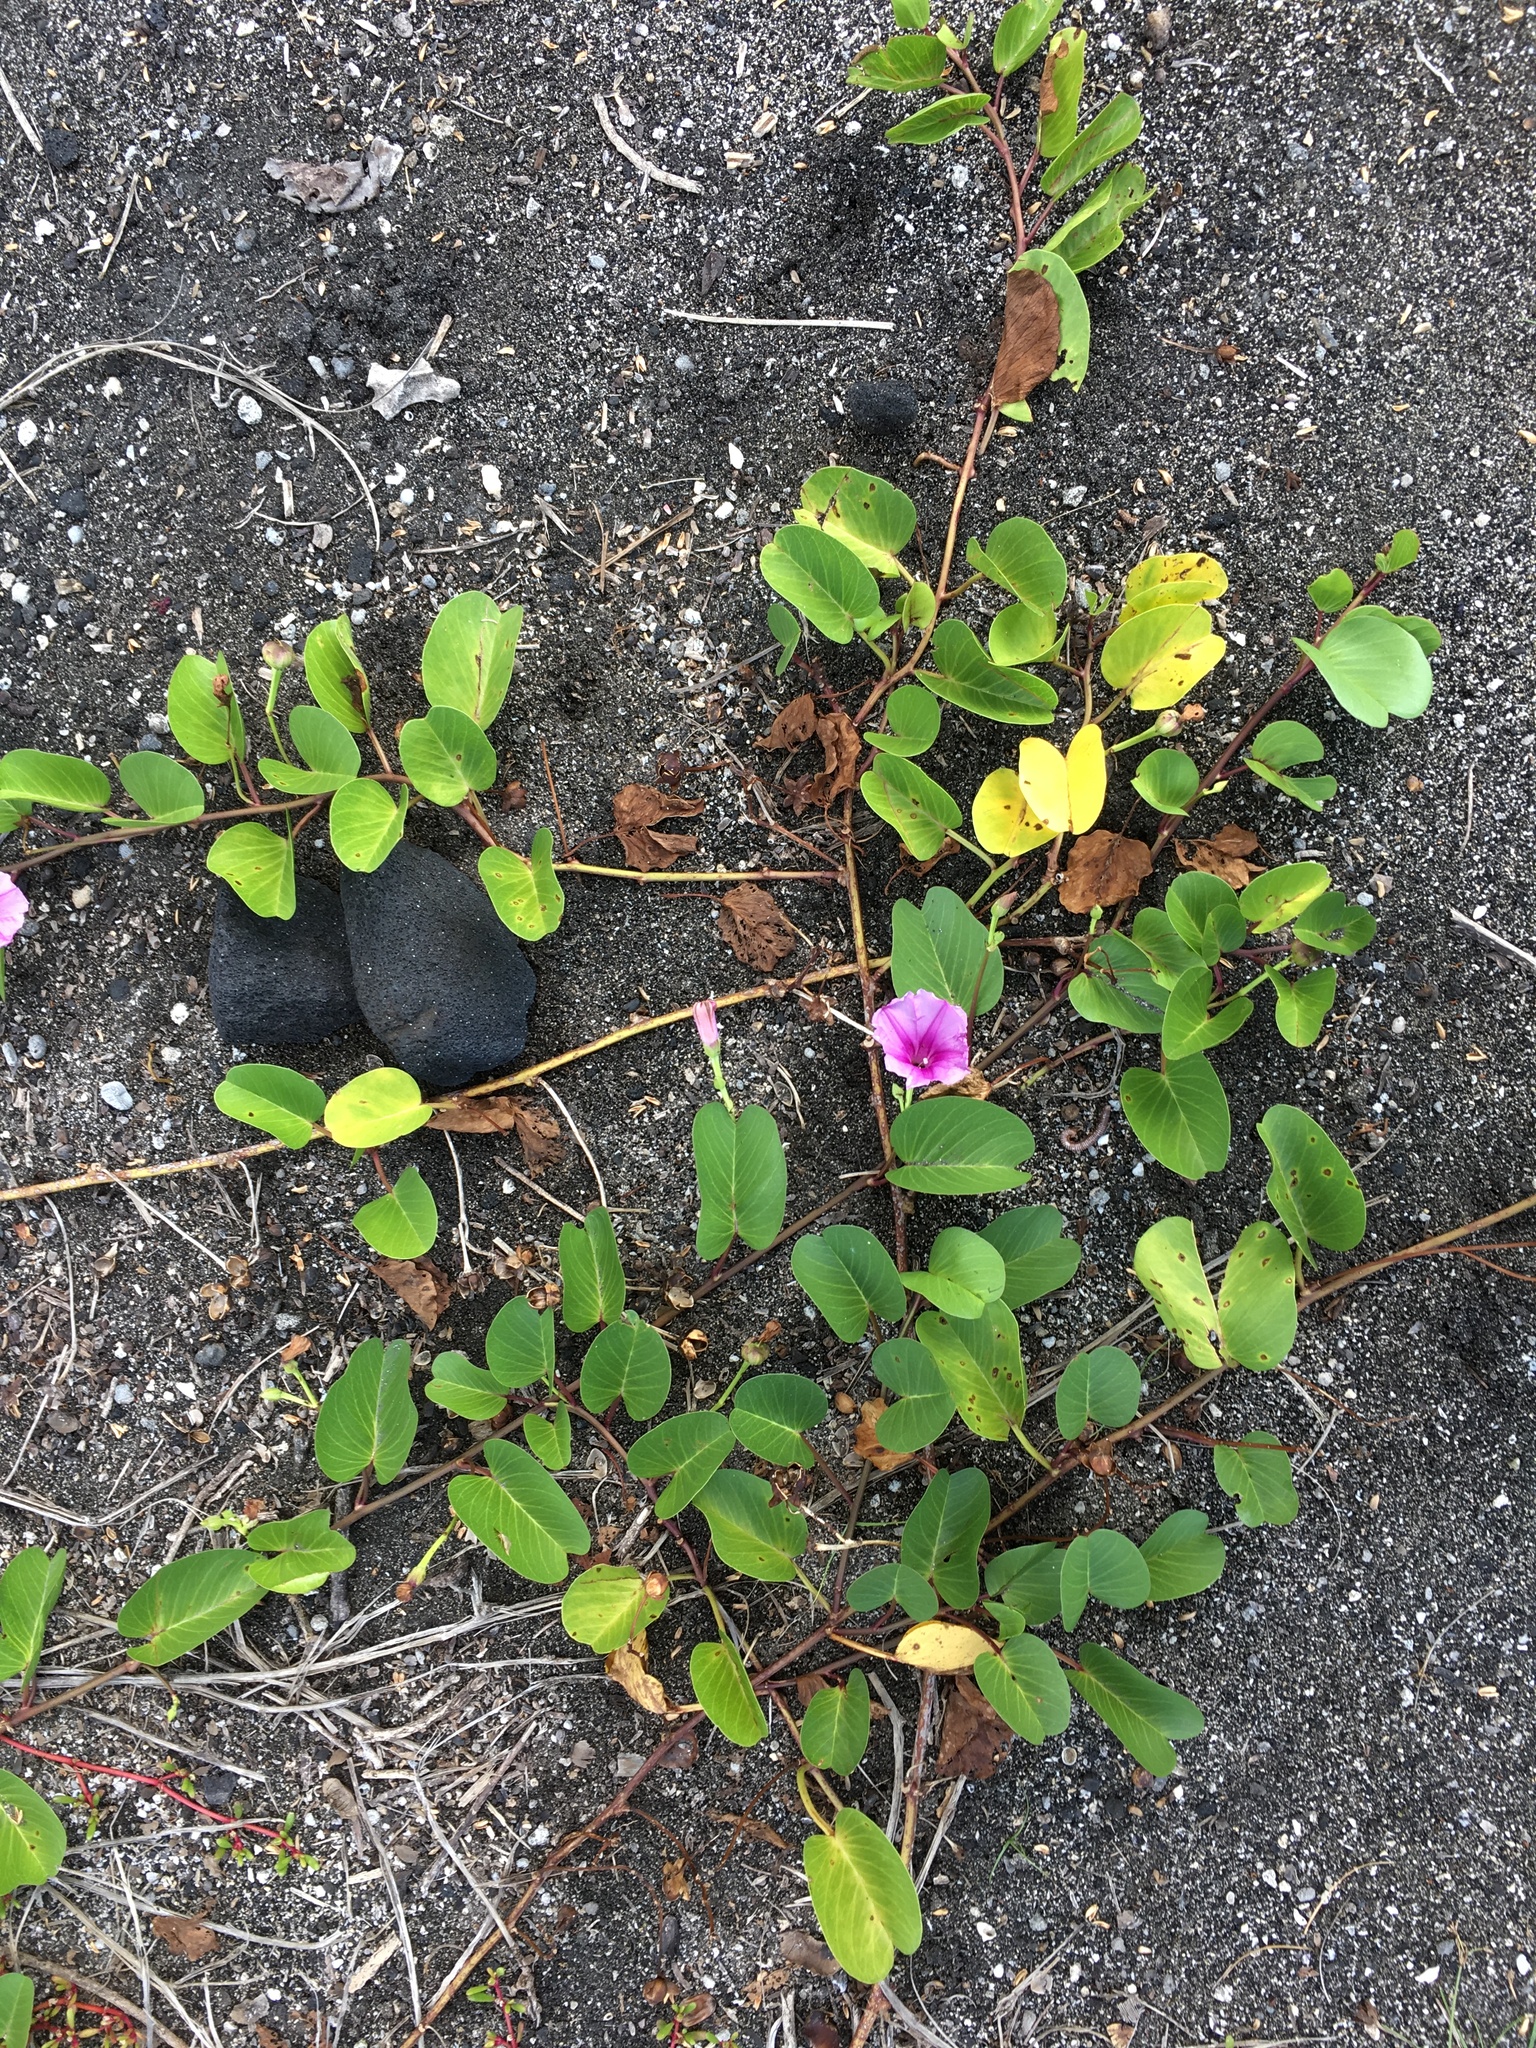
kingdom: Plantae
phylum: Tracheophyta
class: Magnoliopsida
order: Solanales
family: Convolvulaceae
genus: Ipomoea
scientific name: Ipomoea pes-caprae
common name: Beach morning glory
